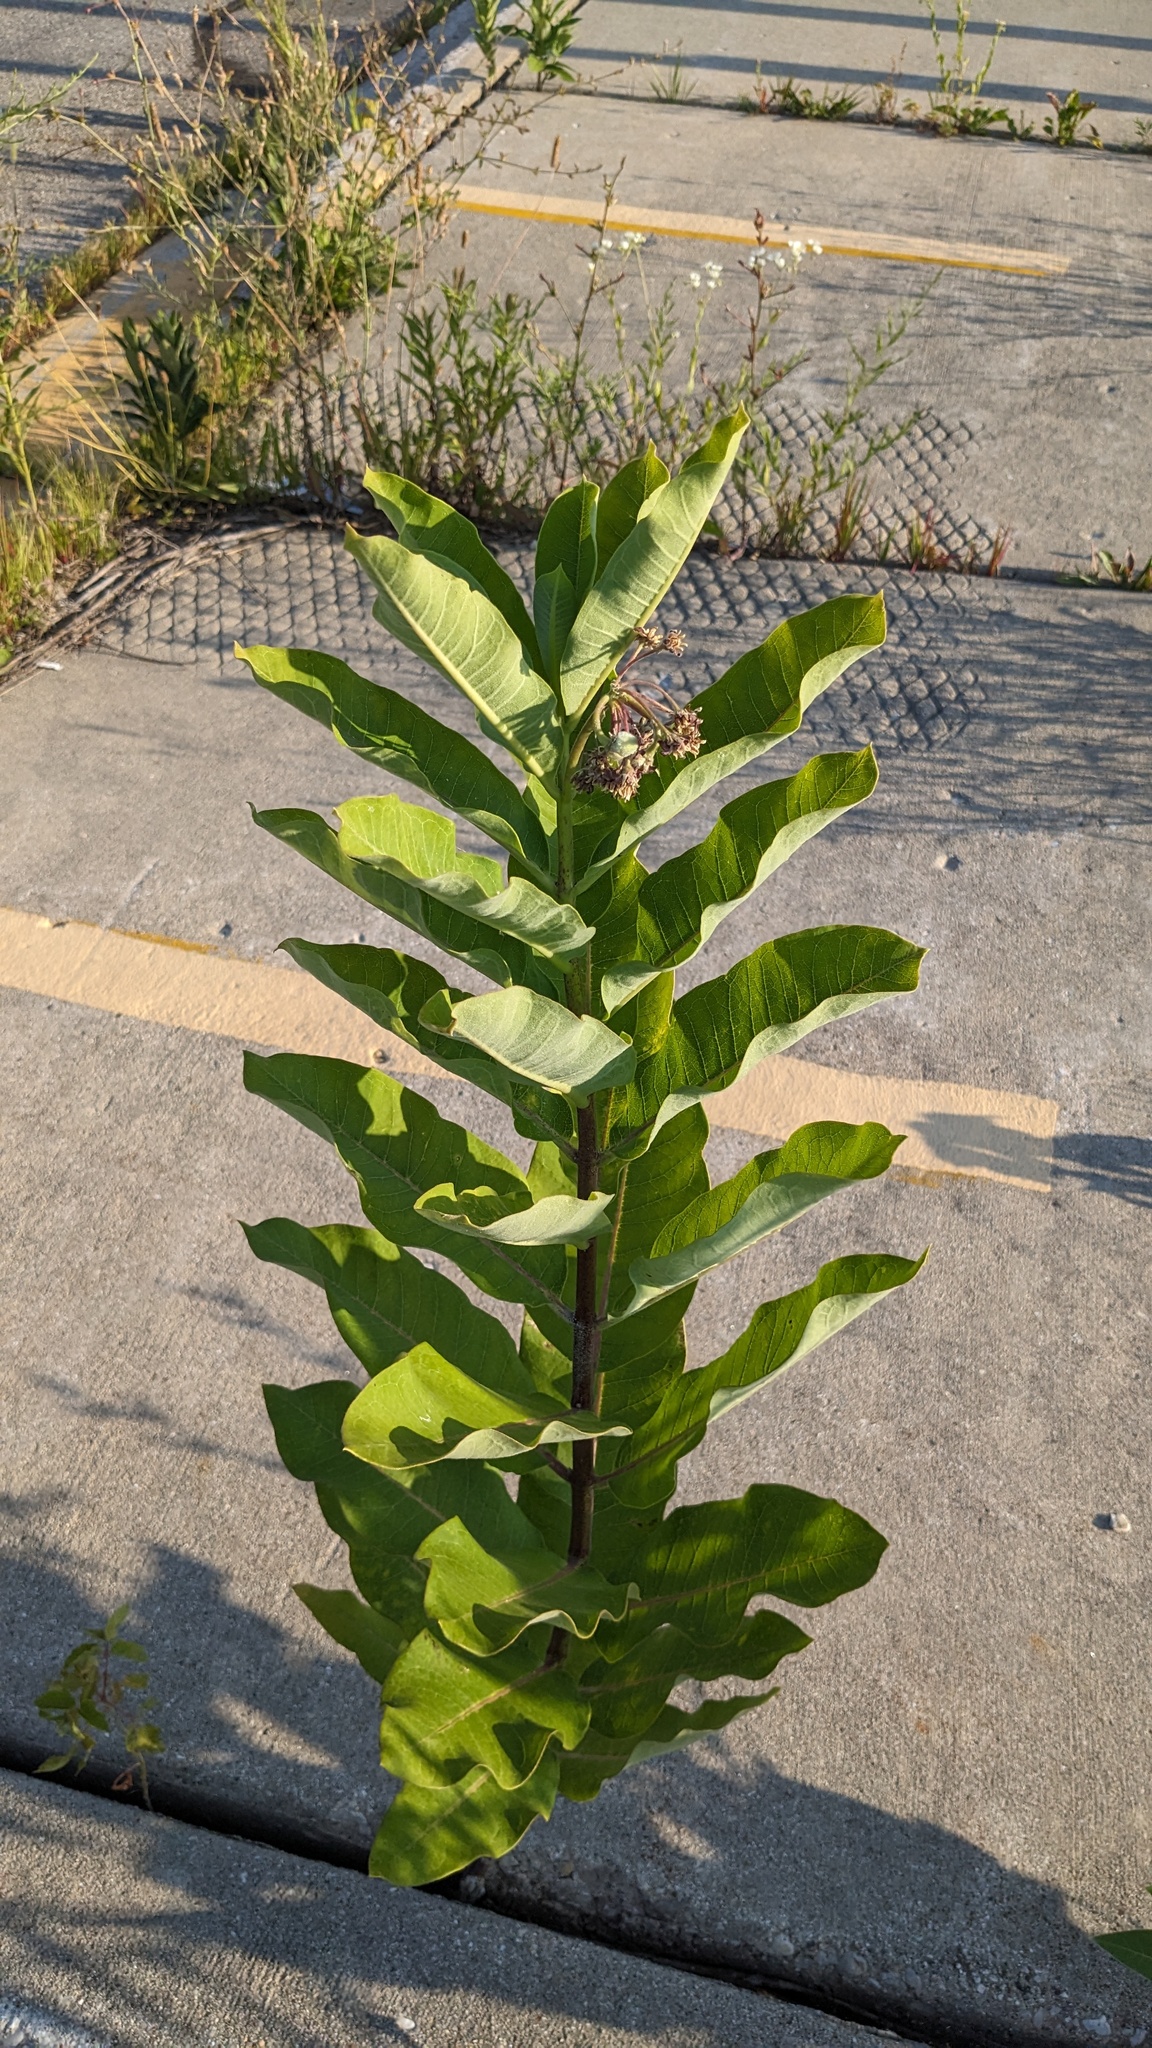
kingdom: Plantae
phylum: Tracheophyta
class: Magnoliopsida
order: Gentianales
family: Apocynaceae
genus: Asclepias
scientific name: Asclepias syriaca
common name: Common milkweed
